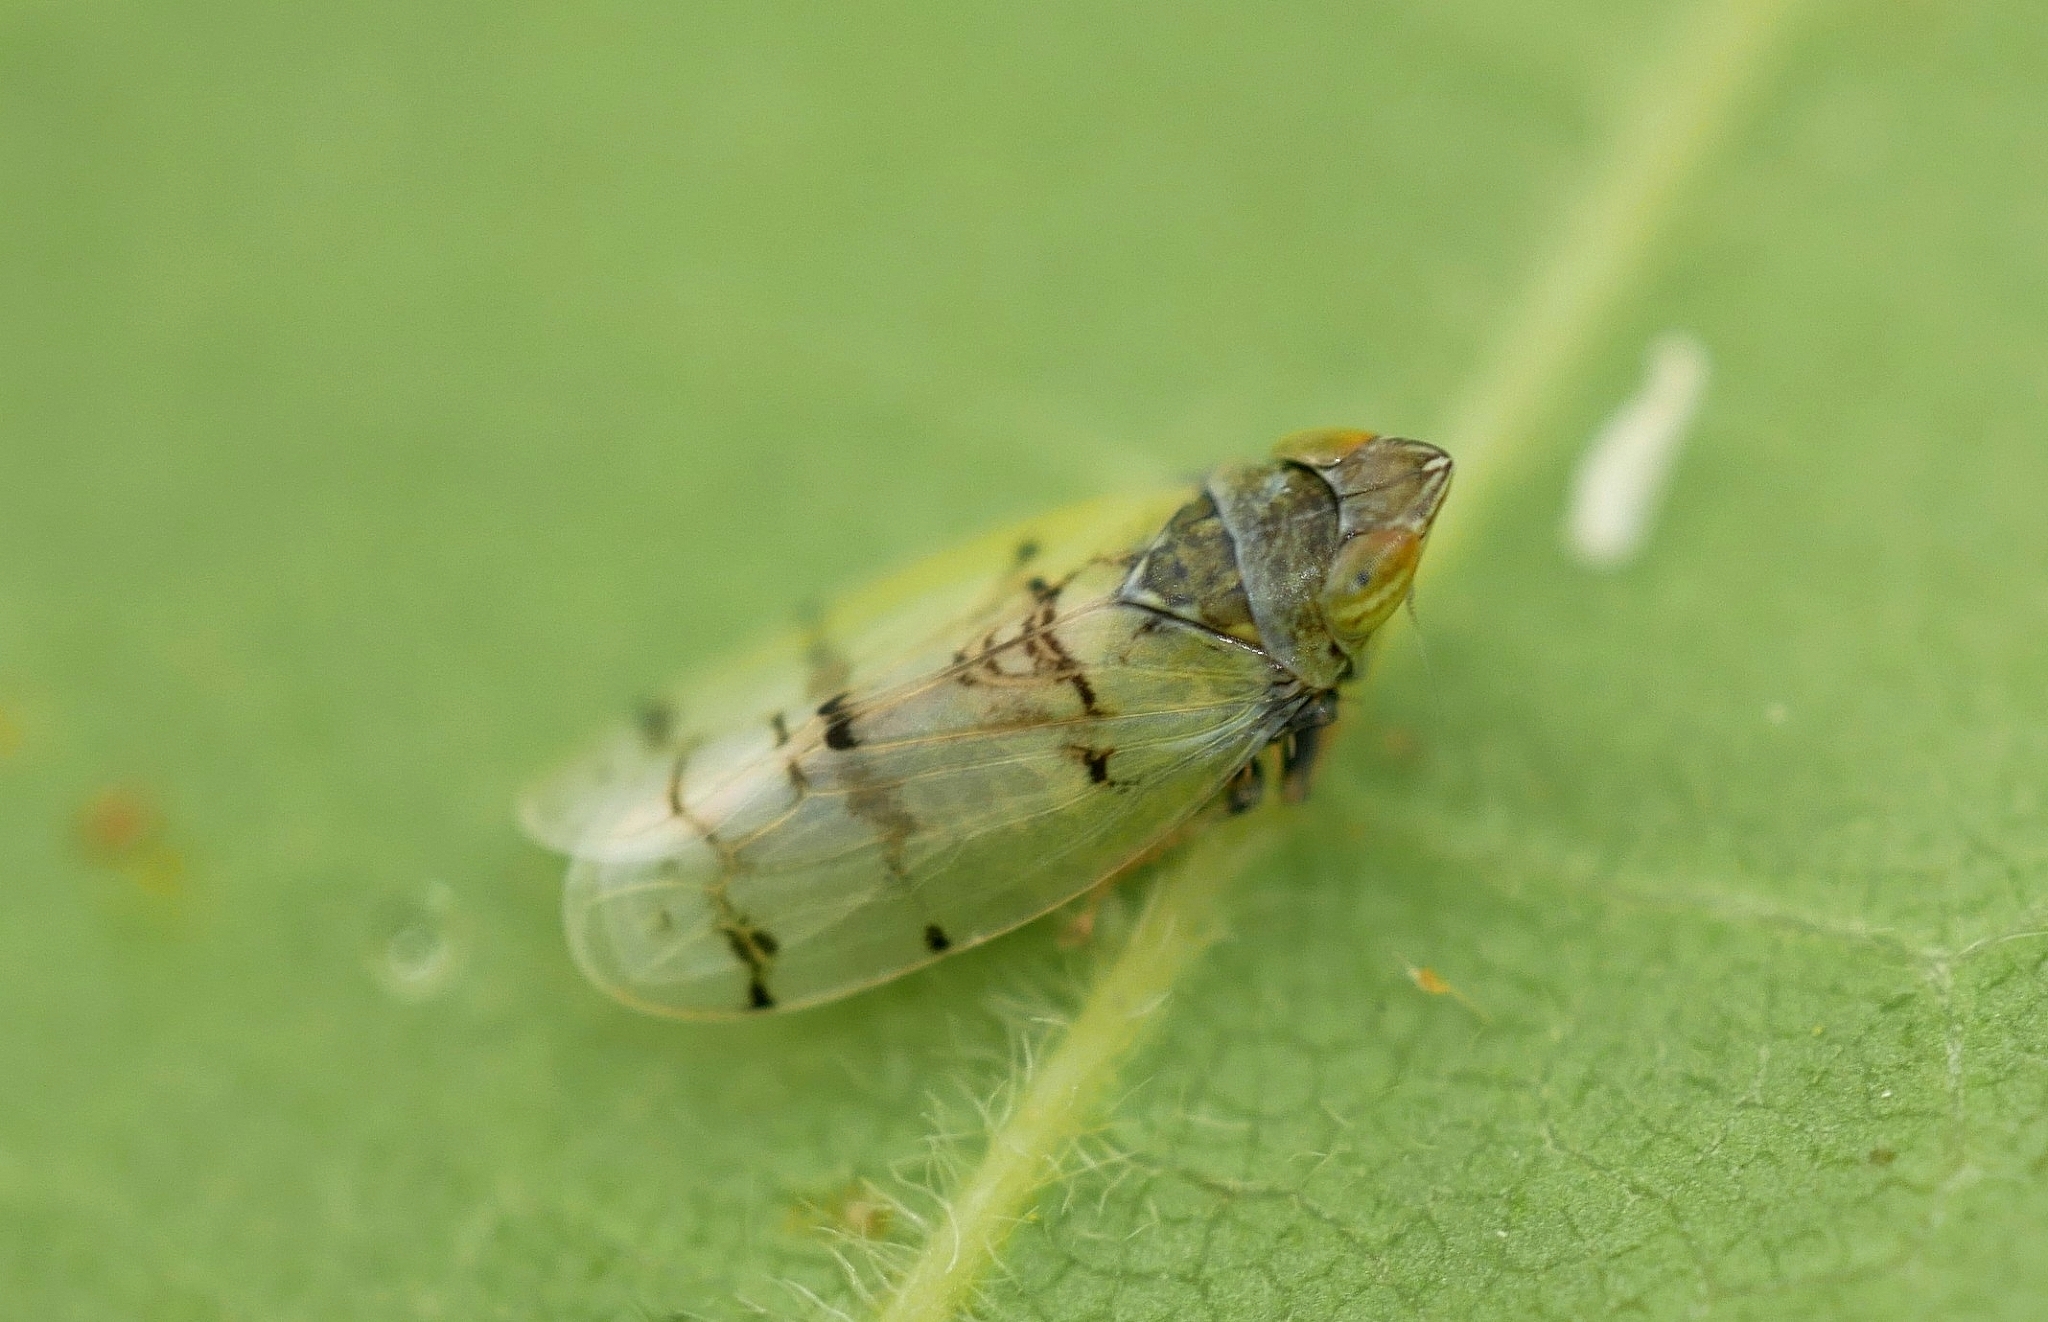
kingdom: Animalia
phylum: Arthropoda
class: Insecta
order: Hemiptera
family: Cicadellidae
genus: Japananus
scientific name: Japananus hyalinus
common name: The japanese maple leafhopper
